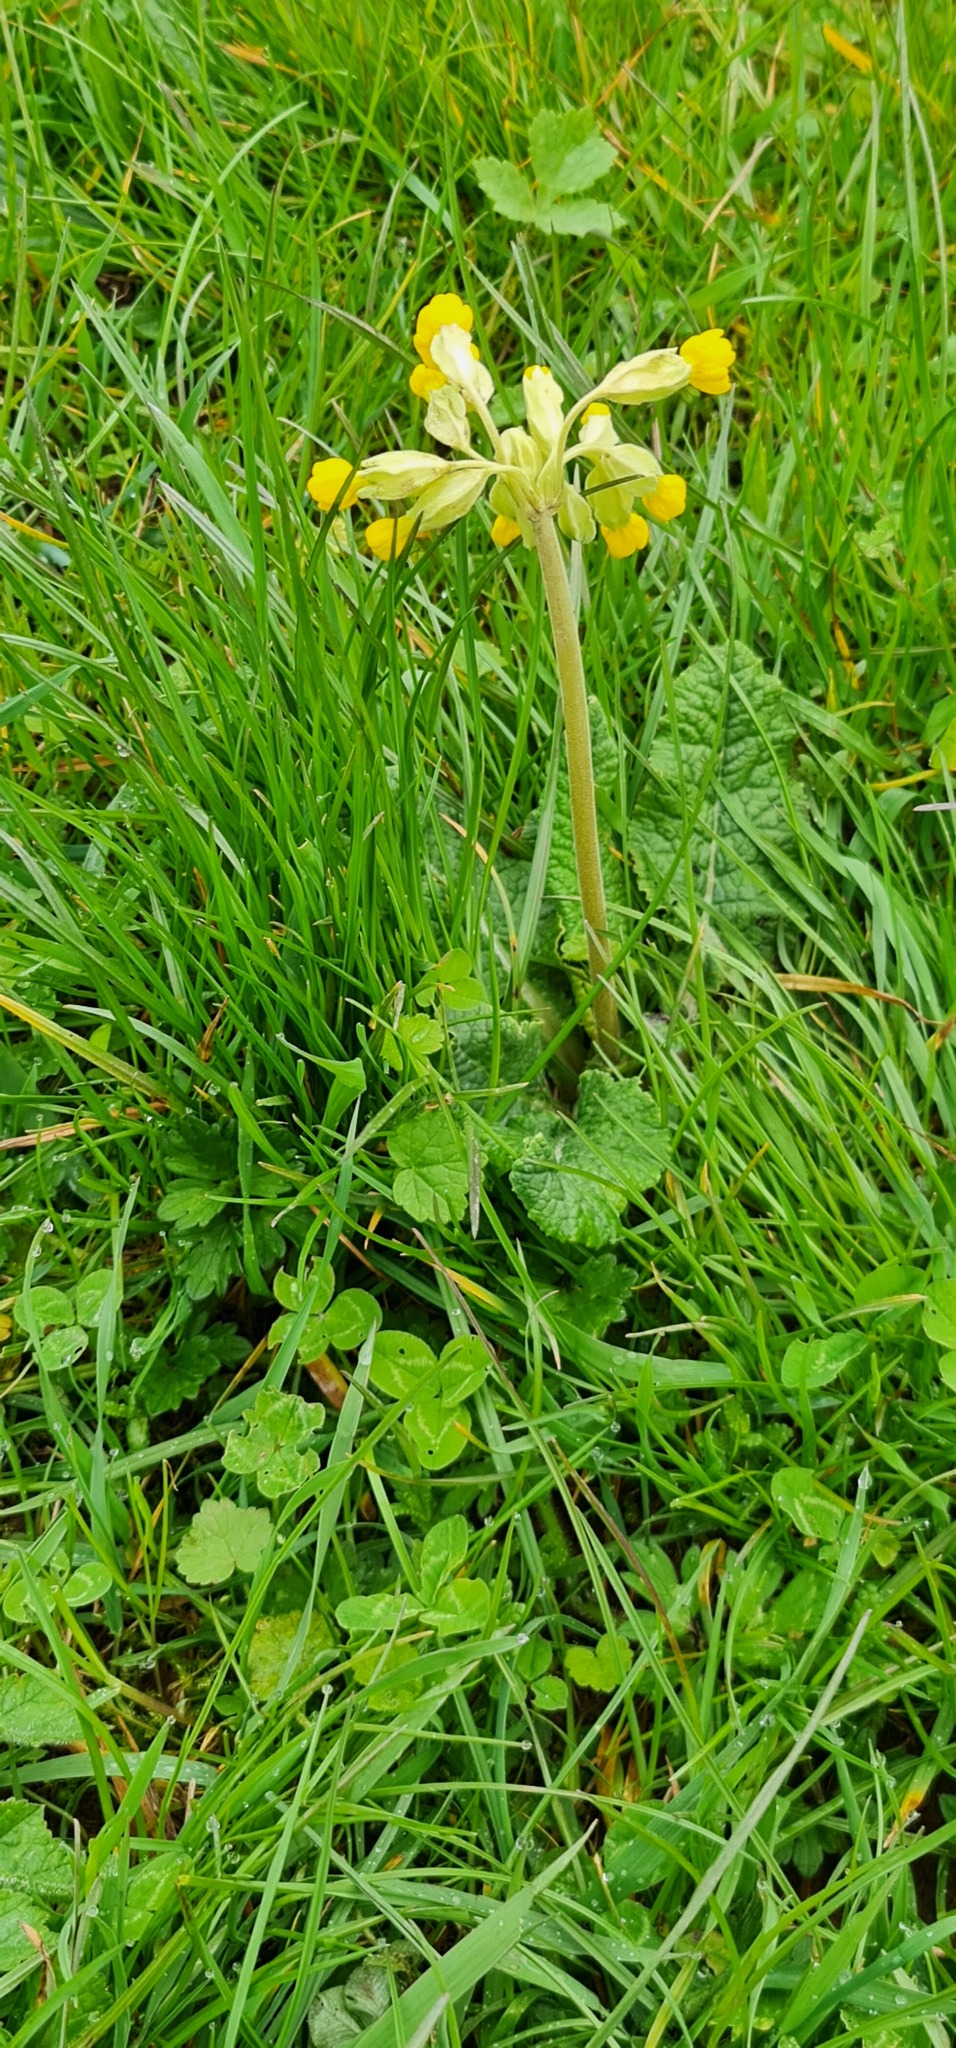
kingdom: Plantae
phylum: Tracheophyta
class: Magnoliopsida
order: Ericales
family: Primulaceae
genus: Primula
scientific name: Primula veris
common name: Cowslip
